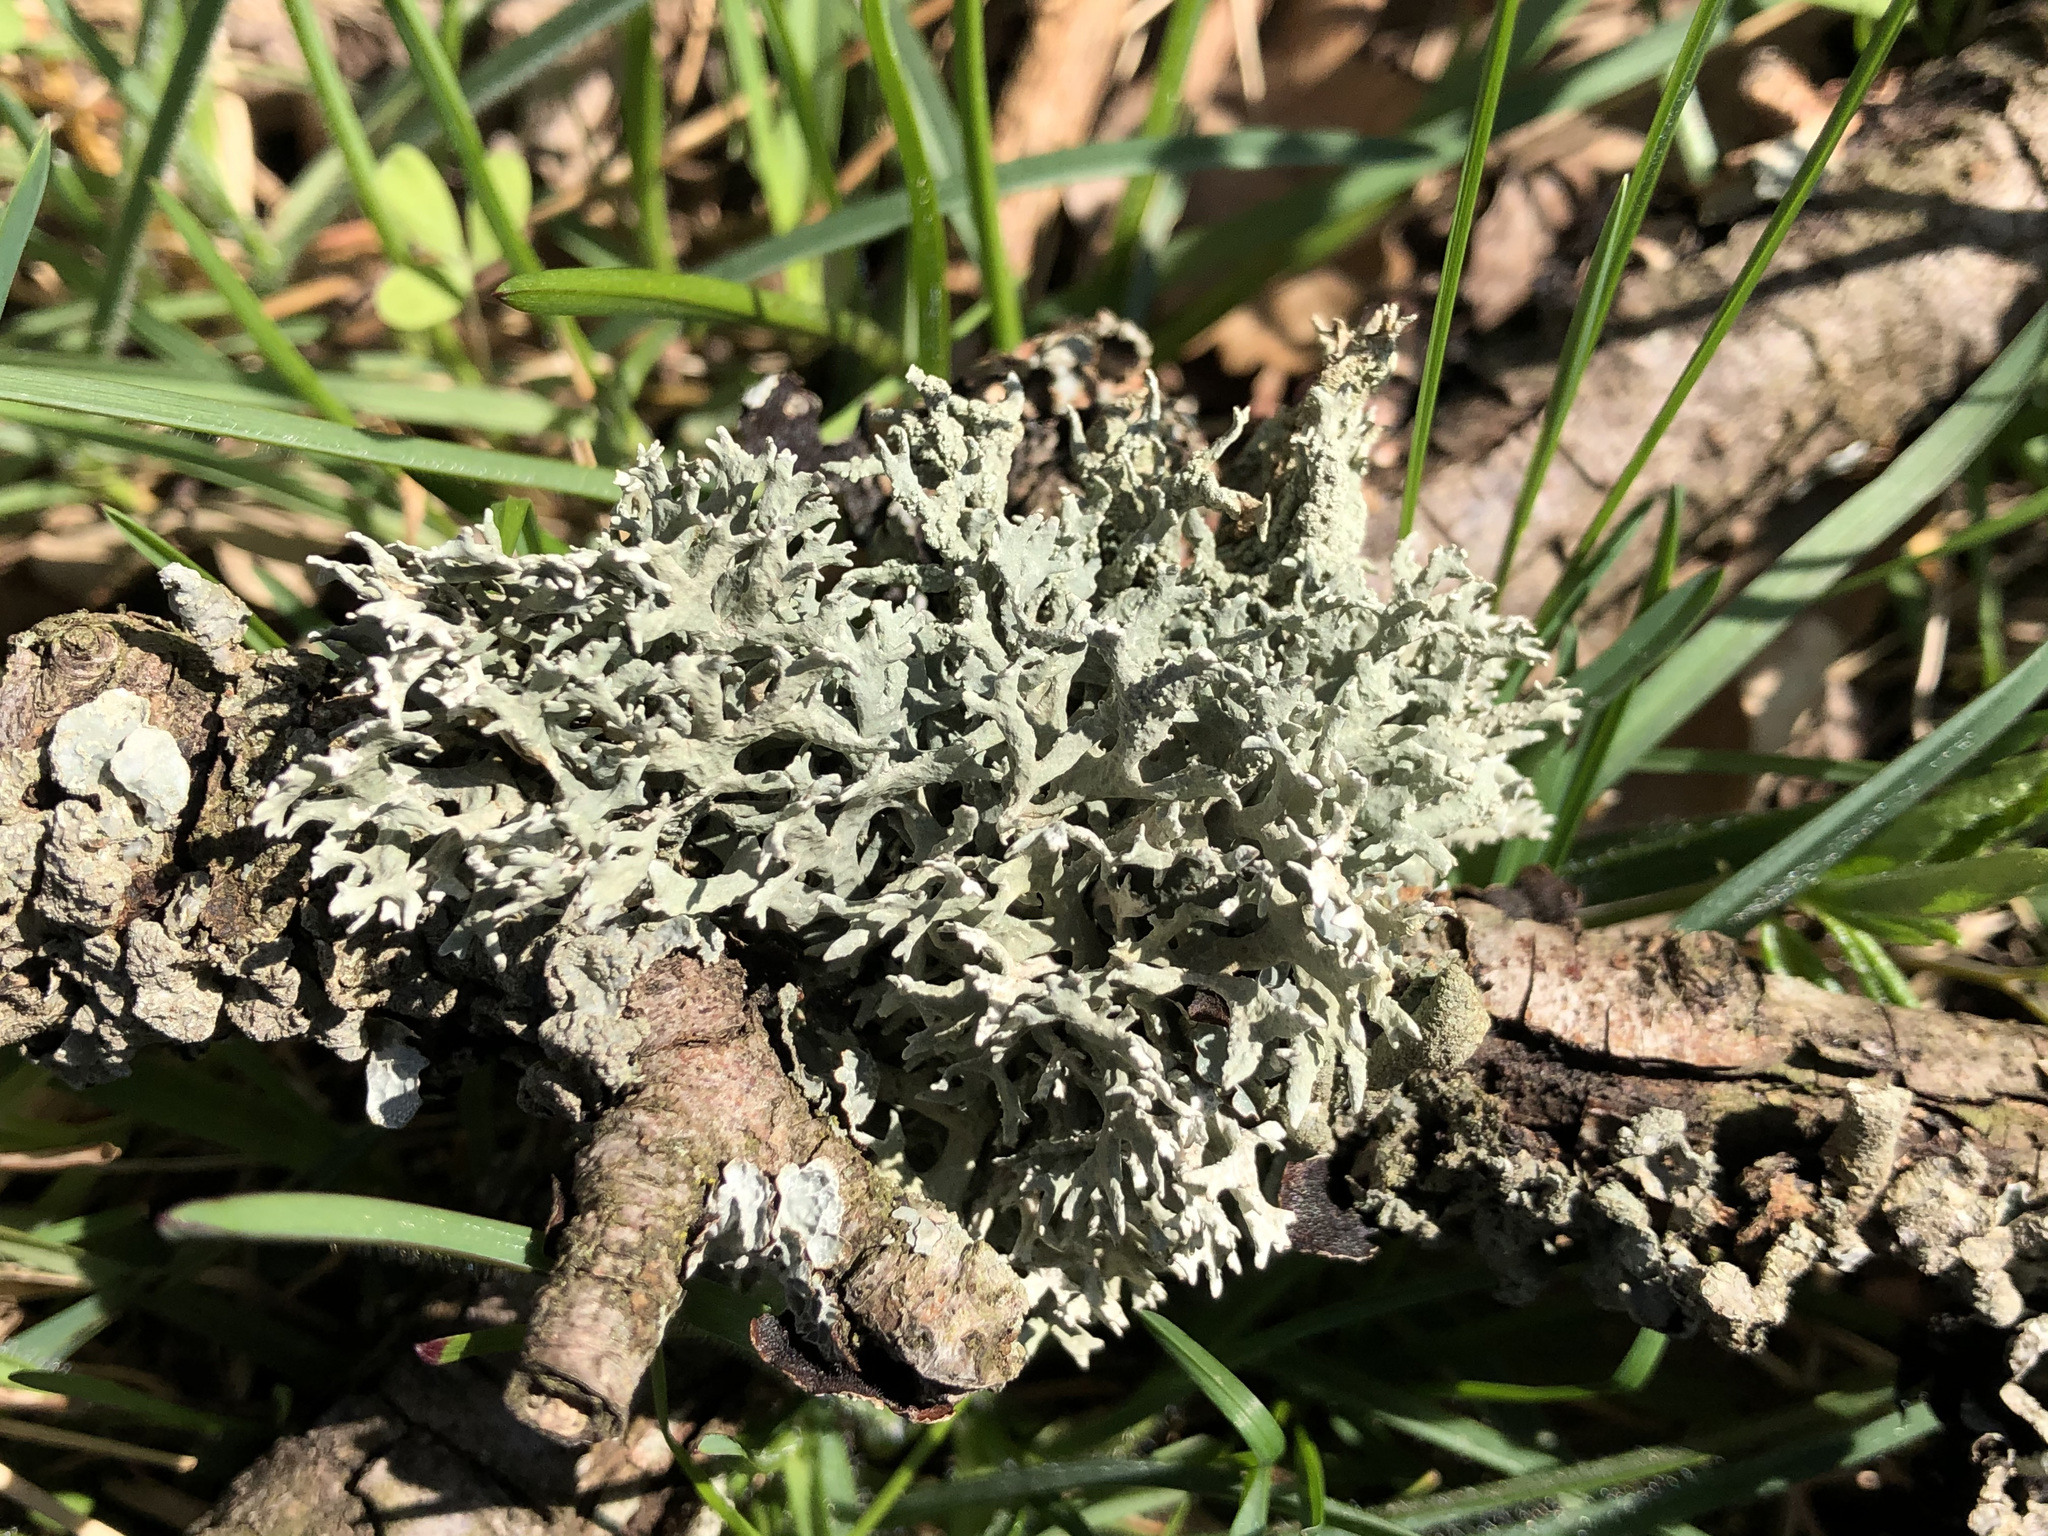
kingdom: Fungi
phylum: Ascomycota
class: Lecanoromycetes
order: Lecanorales
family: Parmeliaceae
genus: Evernia
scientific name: Evernia prunastri
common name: Oak moss
